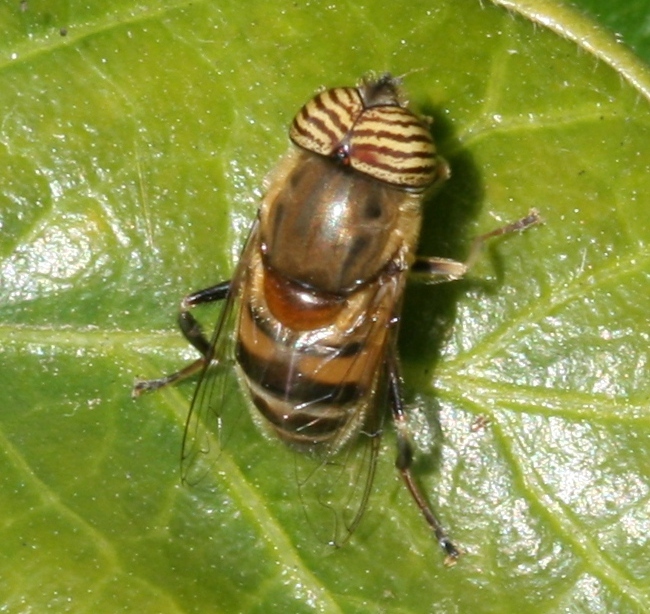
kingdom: Animalia
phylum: Arthropoda
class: Insecta
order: Diptera
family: Syrphidae
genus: Eristalinus
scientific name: Eristalinus taeniops
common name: Syrphid fly
